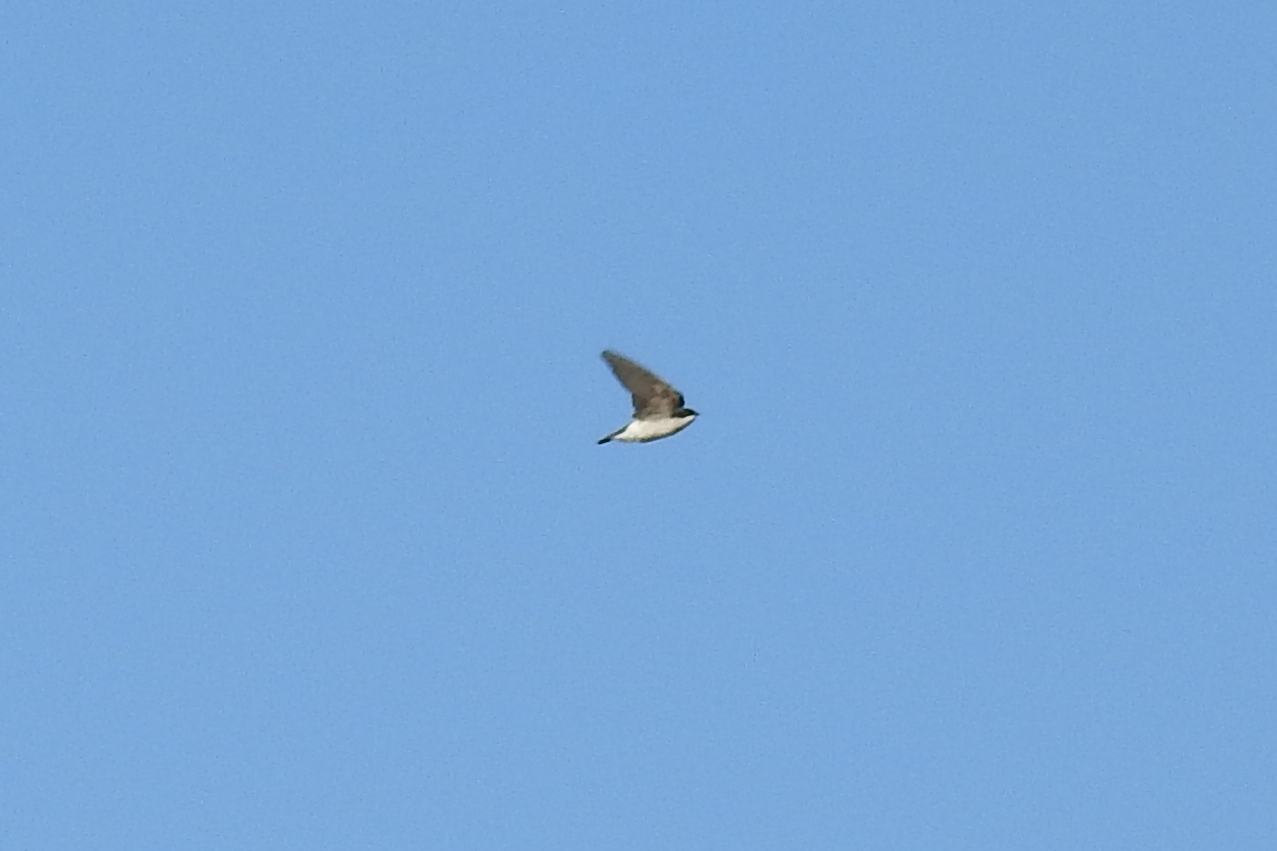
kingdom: Animalia
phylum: Chordata
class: Aves
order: Passeriformes
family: Hirundinidae
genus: Tachycineta
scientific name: Tachycineta bicolor
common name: Tree swallow
